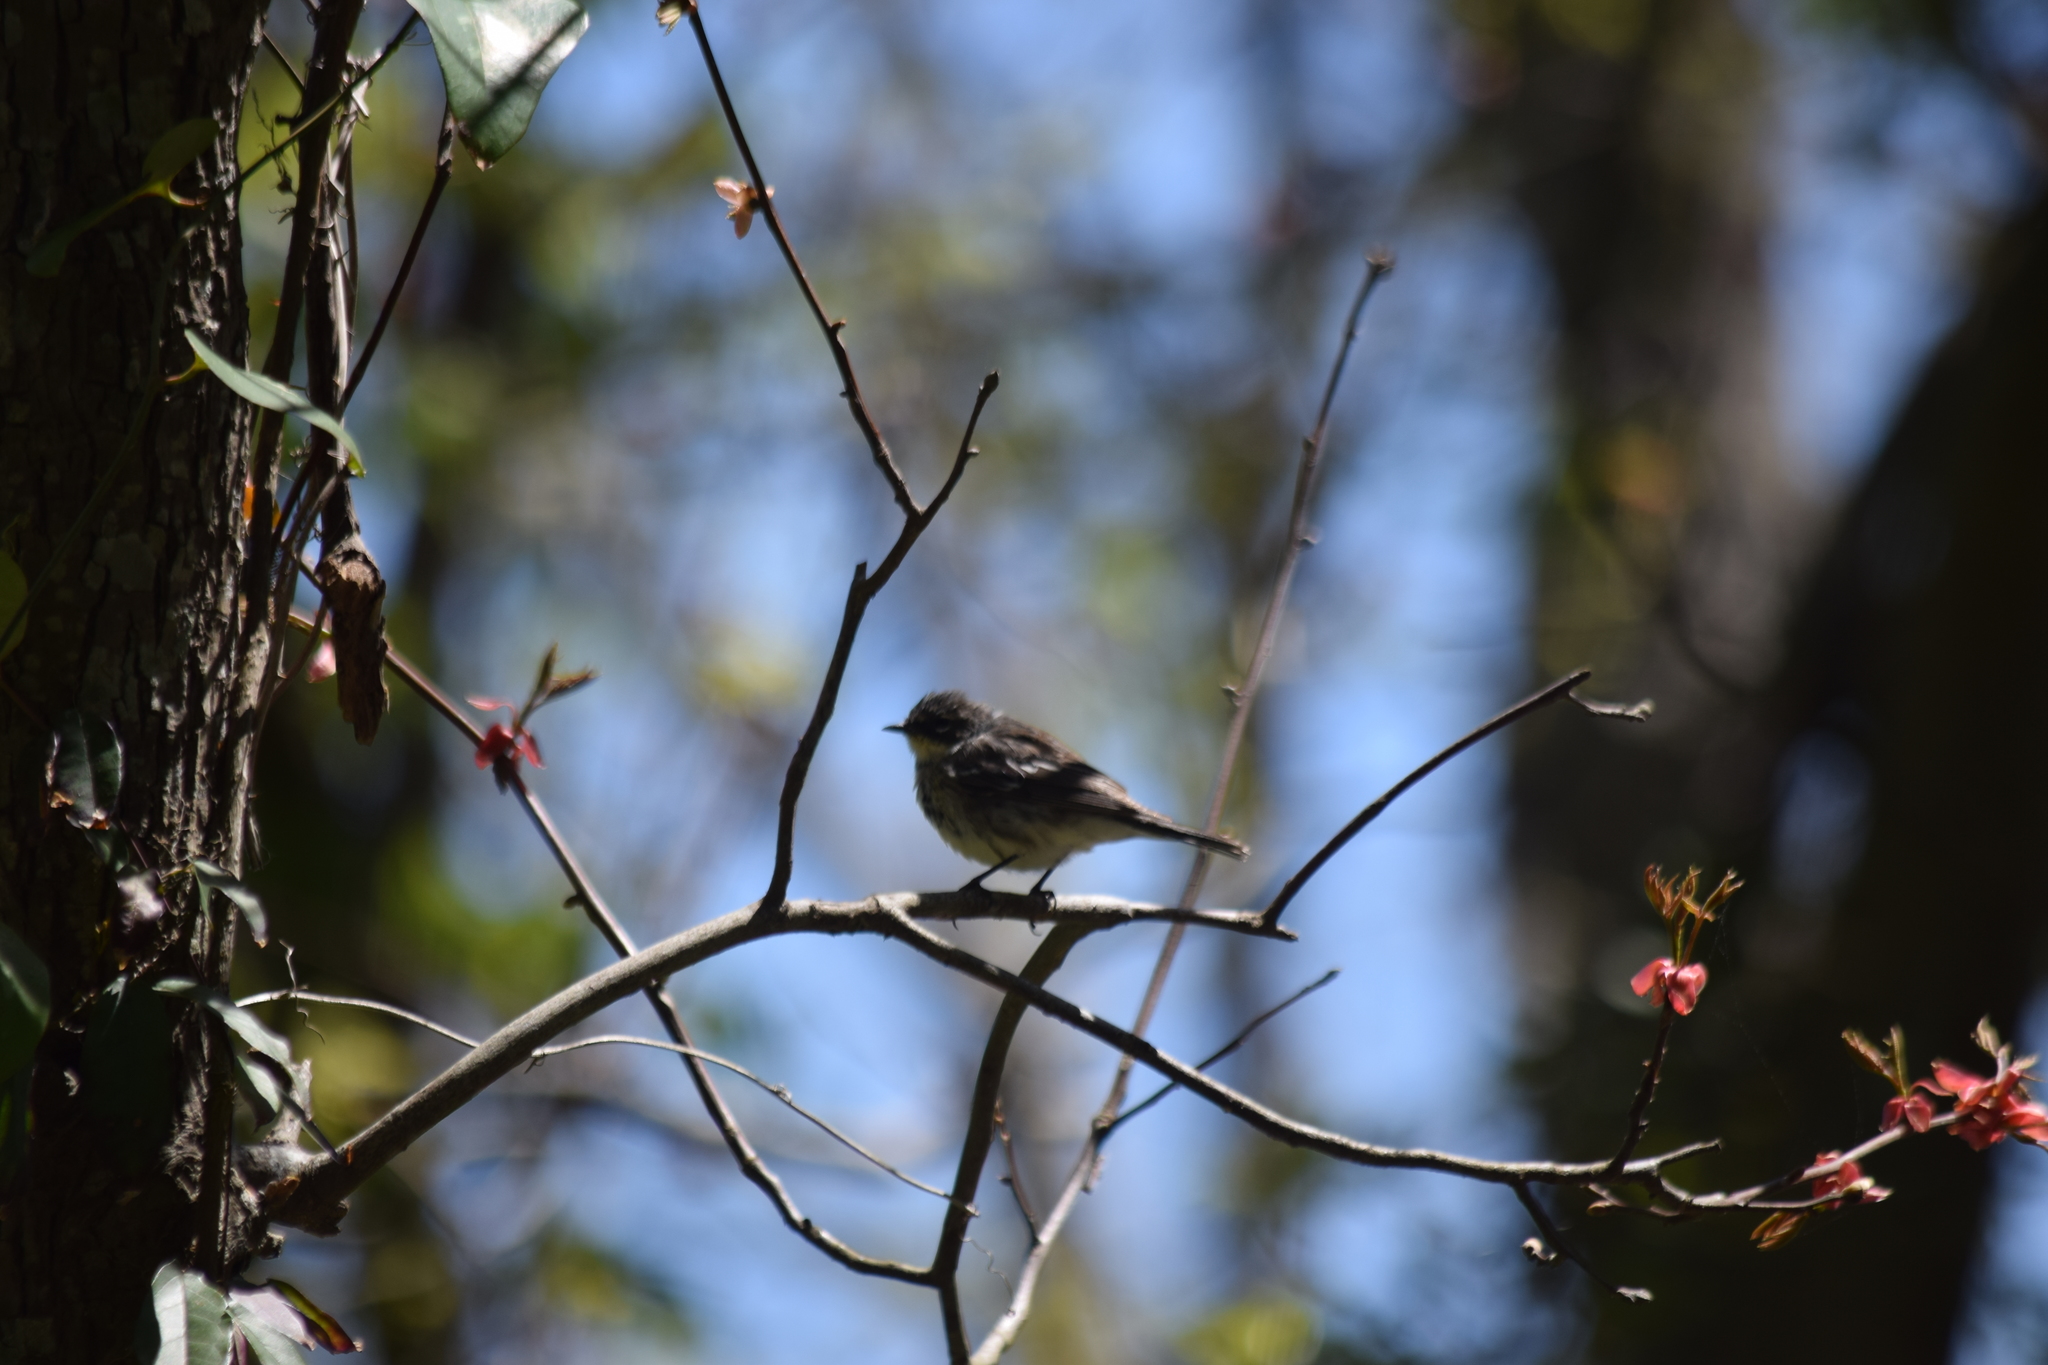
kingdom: Animalia
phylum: Chordata
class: Aves
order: Passeriformes
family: Parulidae
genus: Setophaga
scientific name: Setophaga coronata
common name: Myrtle warbler
